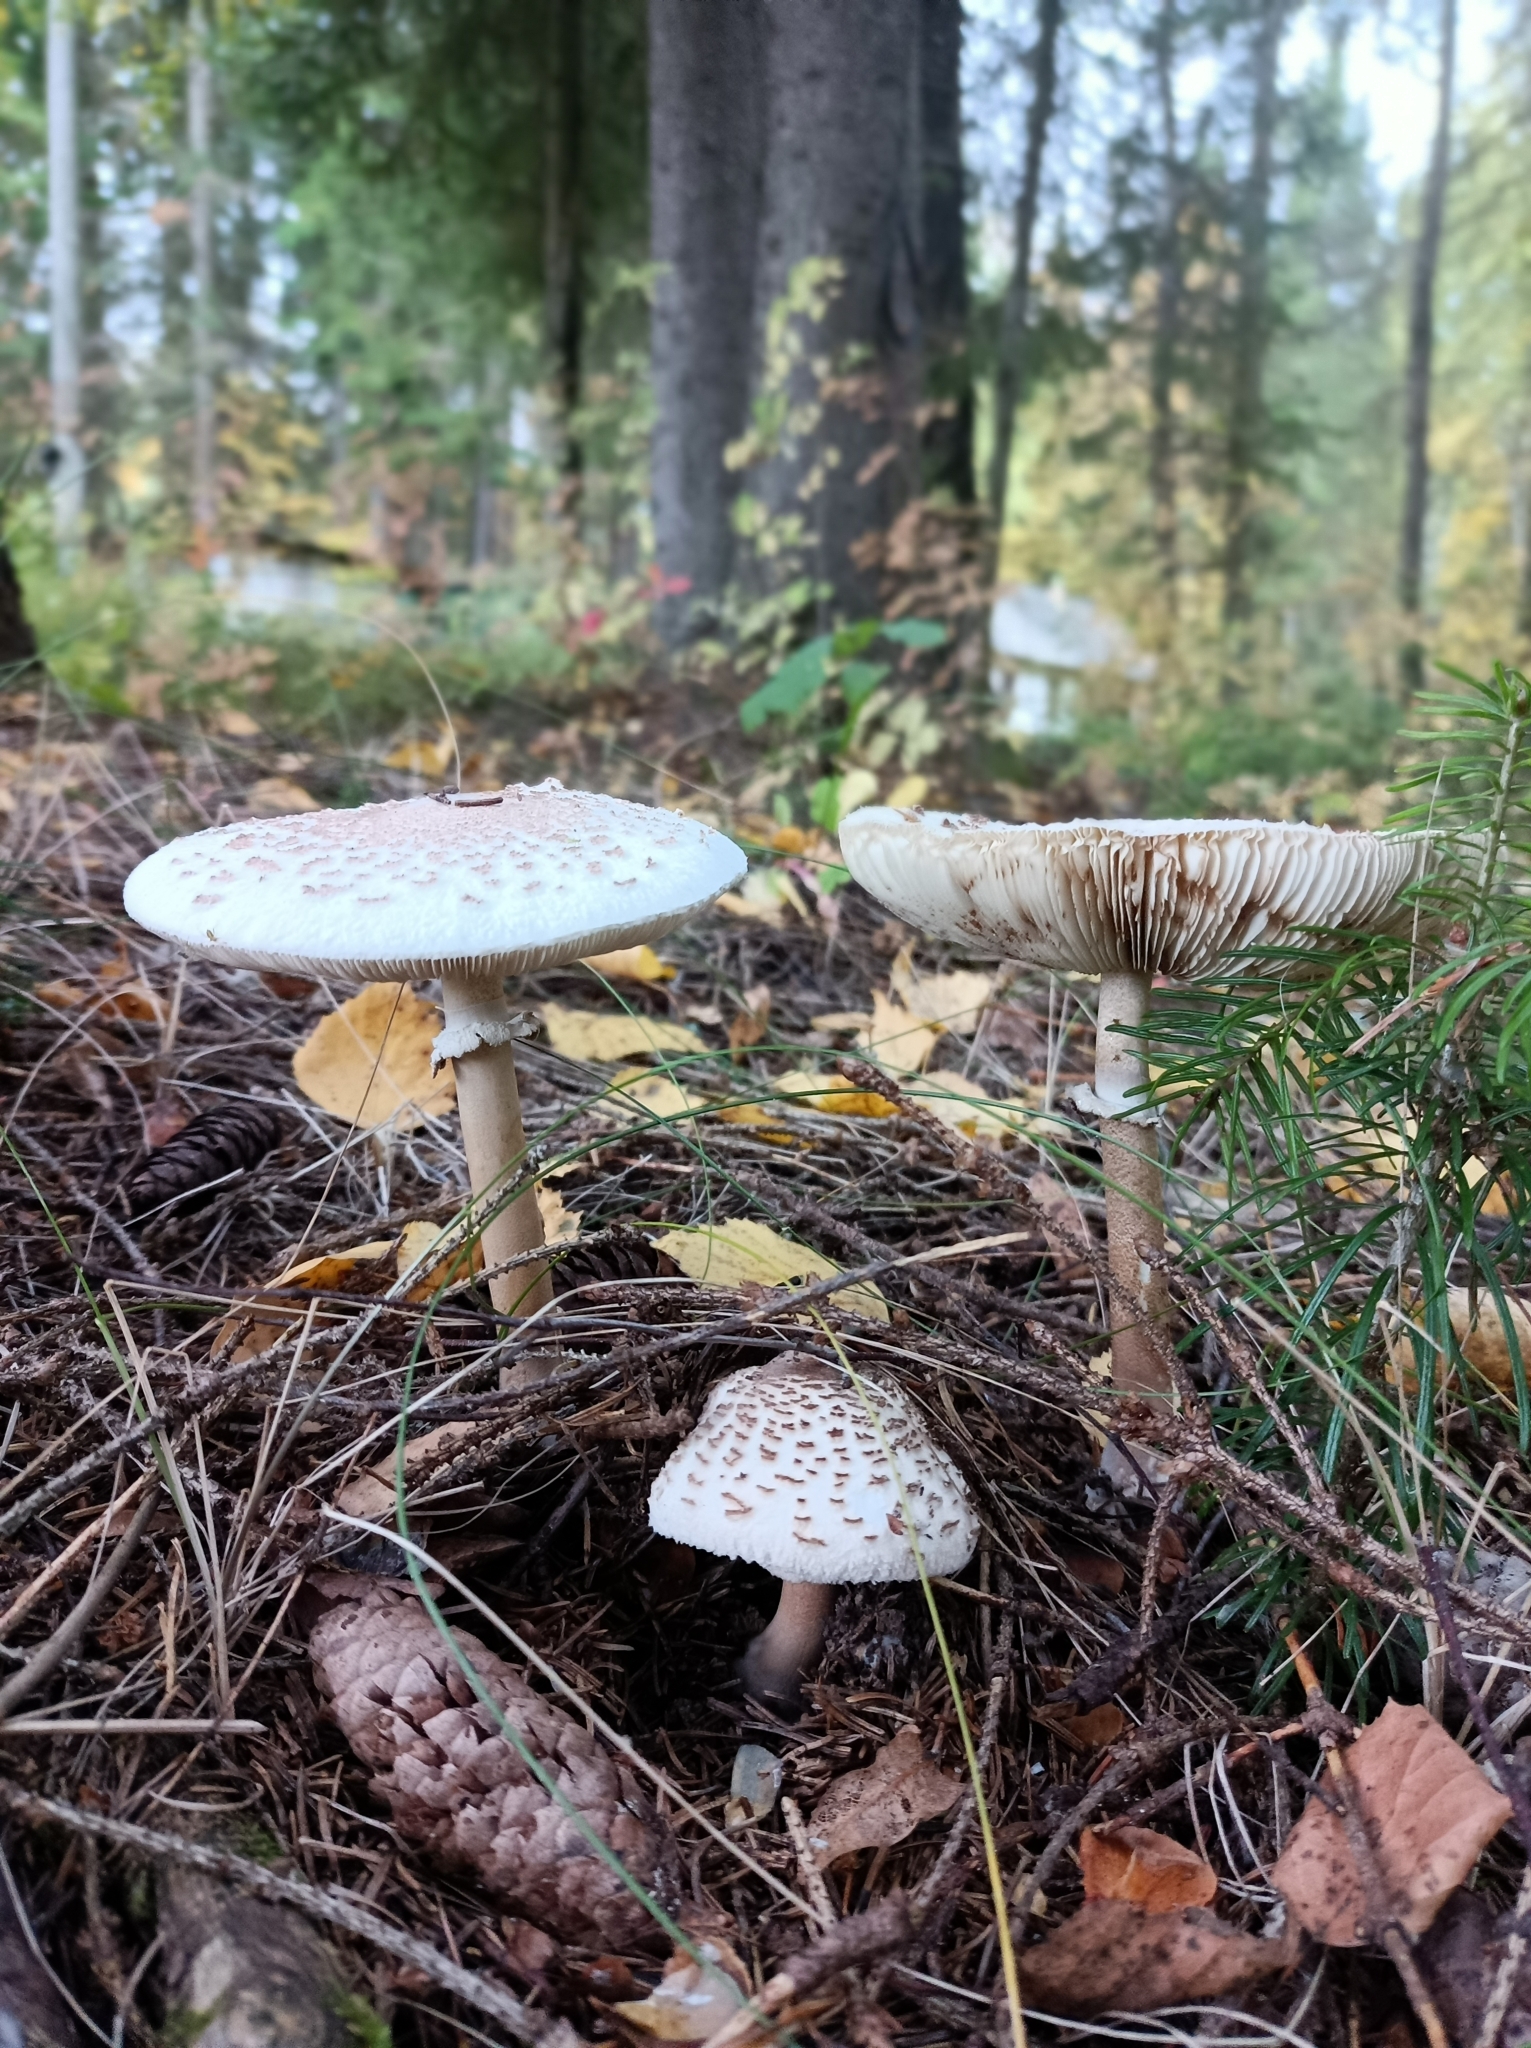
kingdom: Fungi
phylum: Basidiomycota
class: Agaricomycetes
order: Agaricales
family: Agaricaceae
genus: Macrolepiota
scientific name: Macrolepiota procera
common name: Parasol
